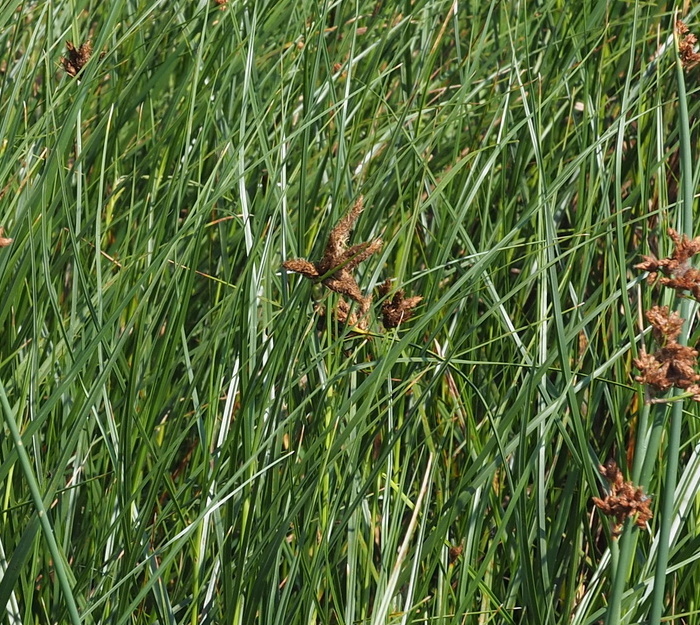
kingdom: Plantae
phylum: Tracheophyta
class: Liliopsida
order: Poales
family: Cyperaceae
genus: Bolboschoenus
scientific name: Bolboschoenus maritimus
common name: Sea club-rush
